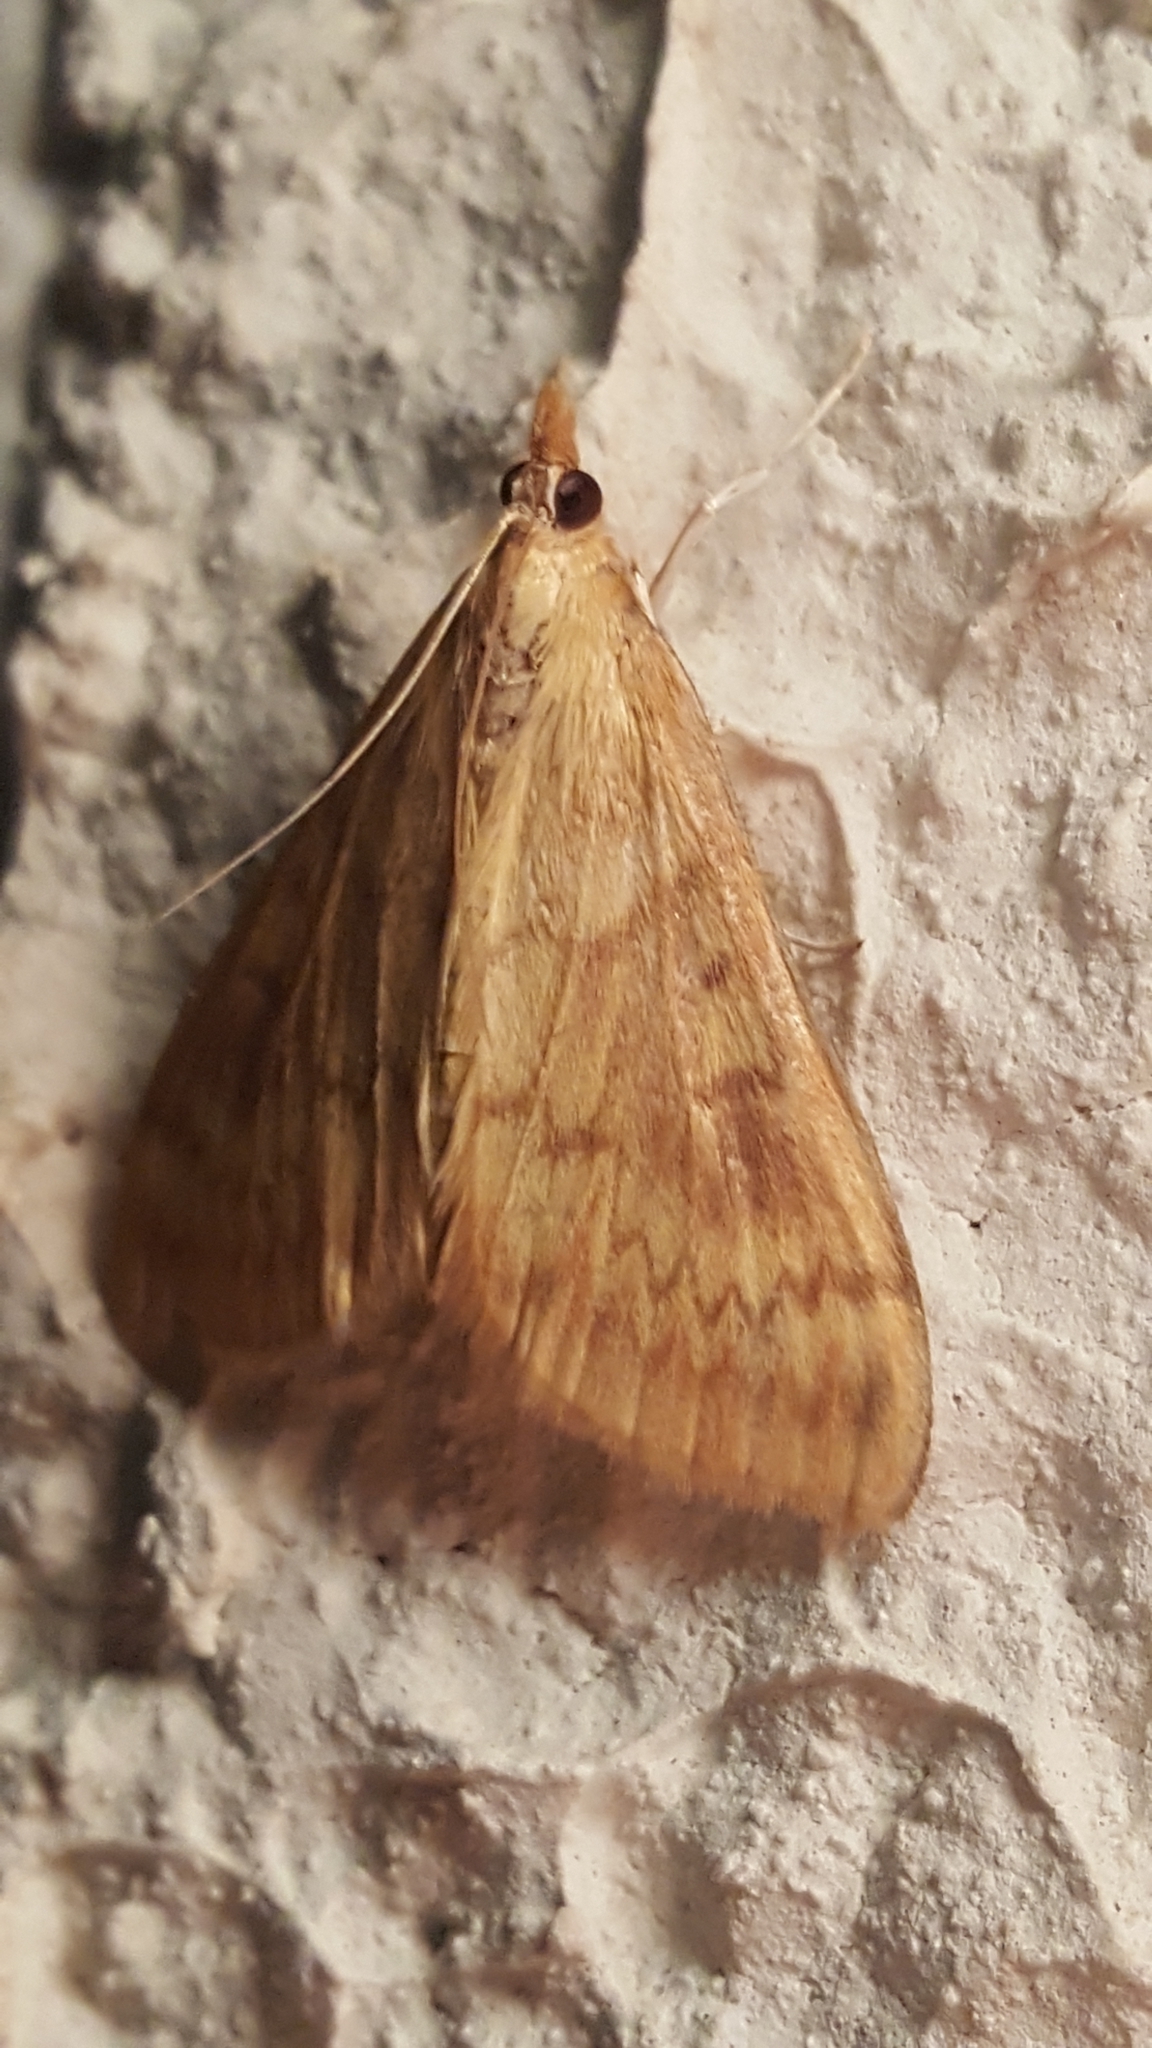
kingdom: Animalia
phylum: Arthropoda
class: Insecta
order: Lepidoptera
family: Crambidae
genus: Ostrinia
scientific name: Ostrinia nubilalis
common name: European corn borer
